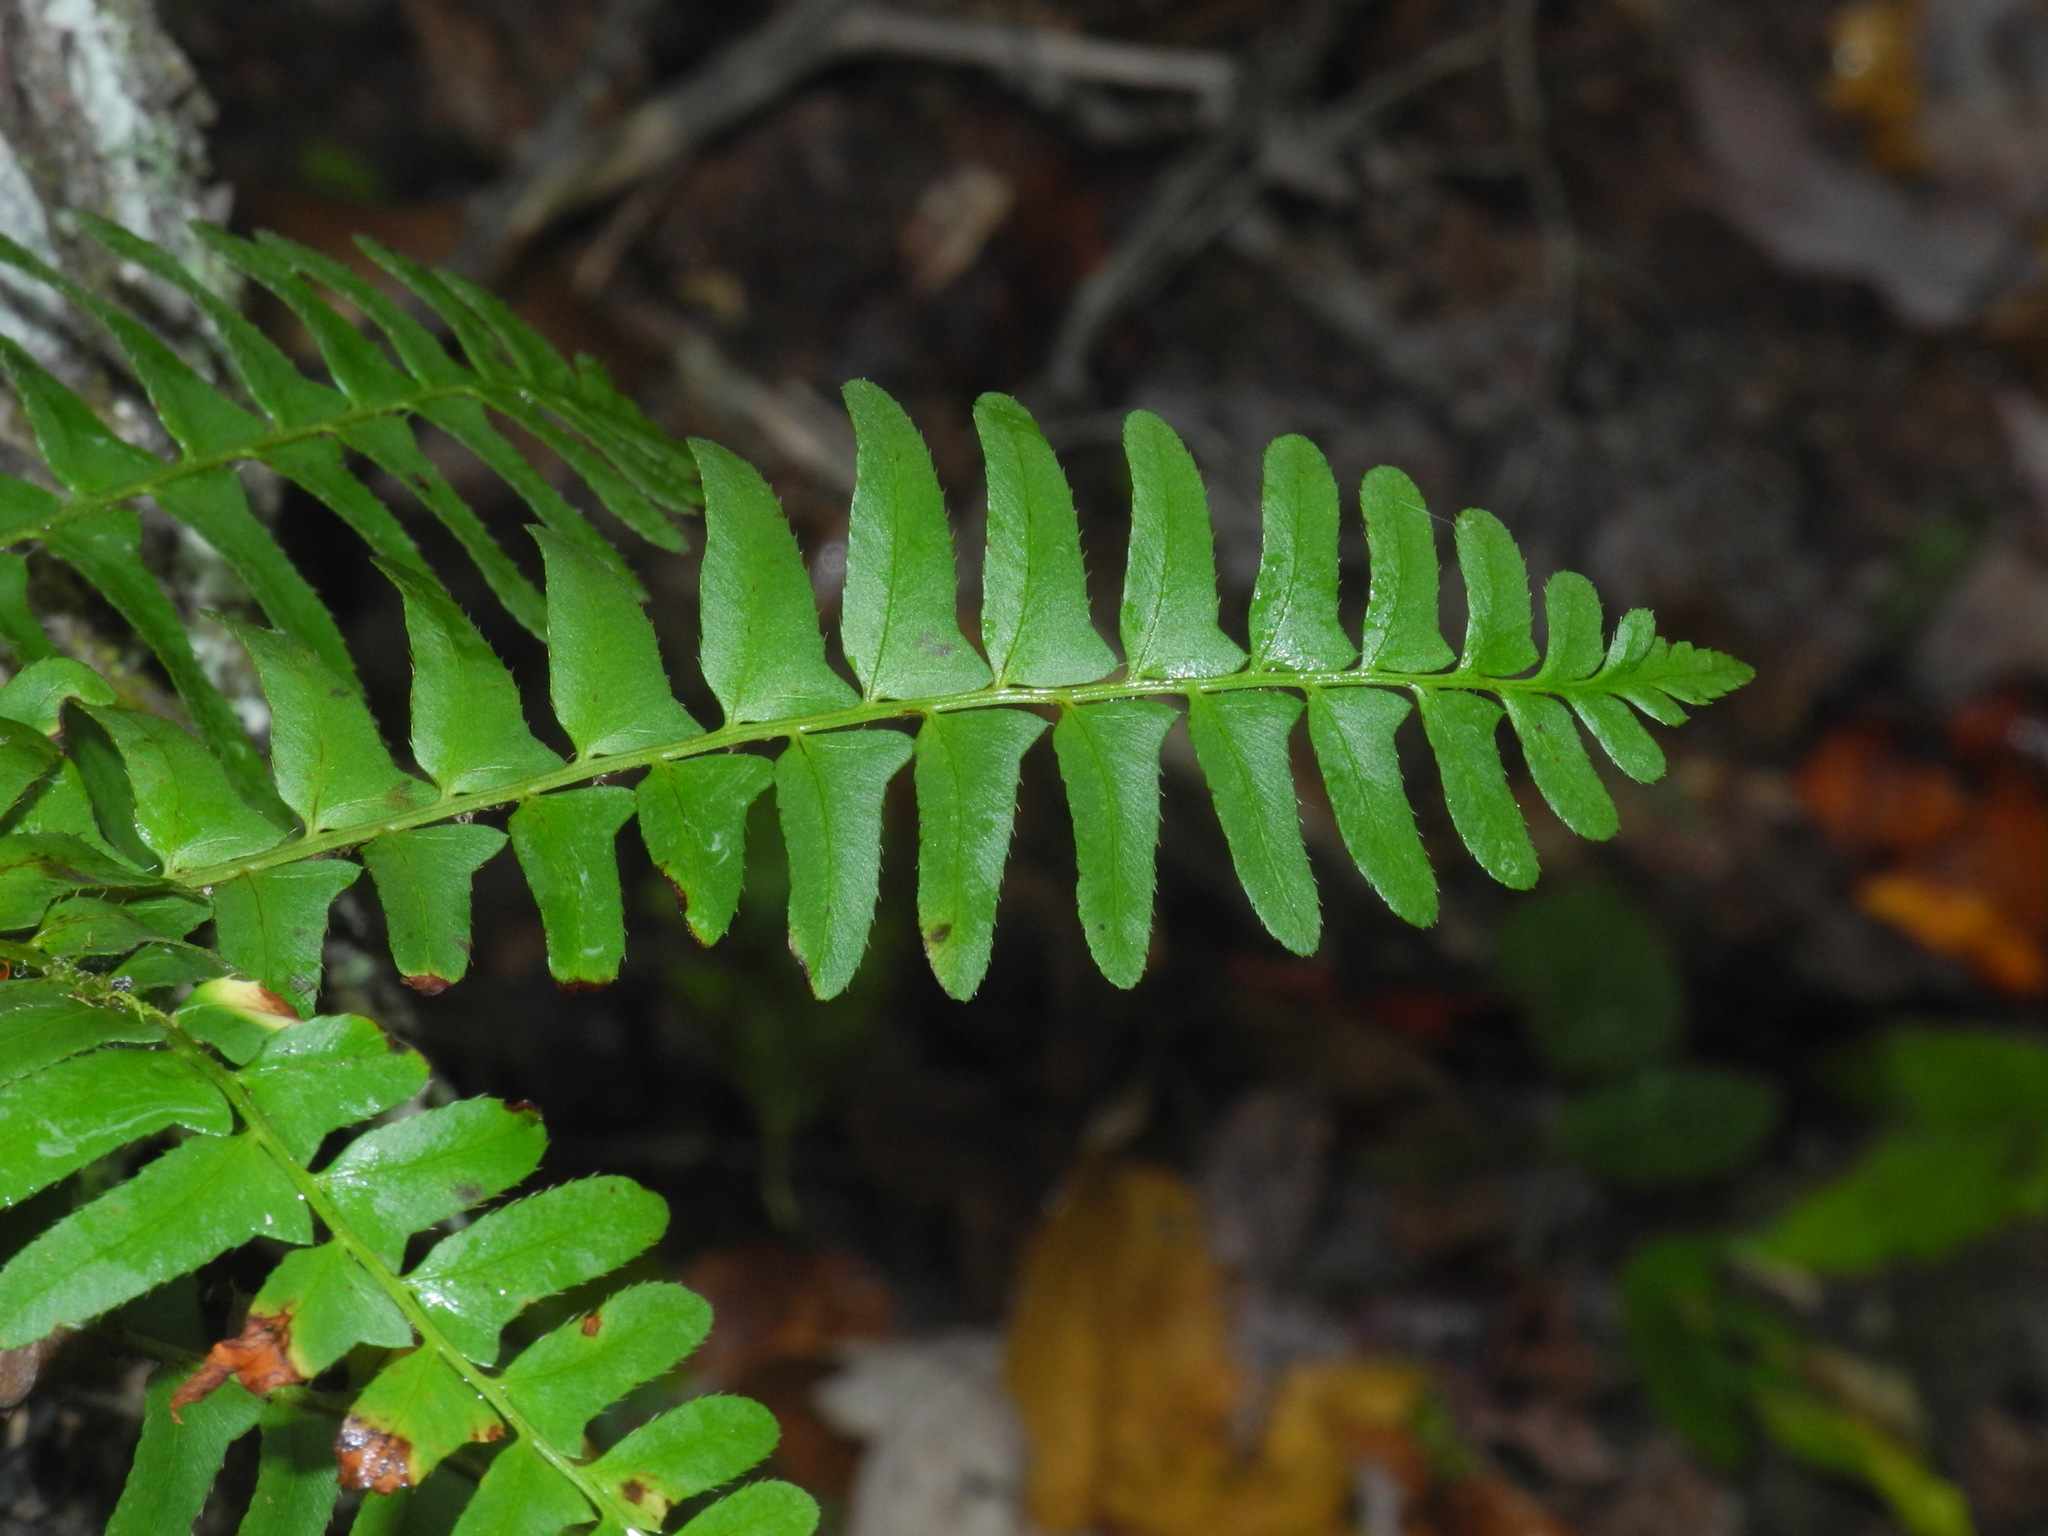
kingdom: Plantae
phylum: Tracheophyta
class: Polypodiopsida
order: Polypodiales
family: Dryopteridaceae
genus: Polystichum
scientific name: Polystichum acrostichoides
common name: Christmas fern
